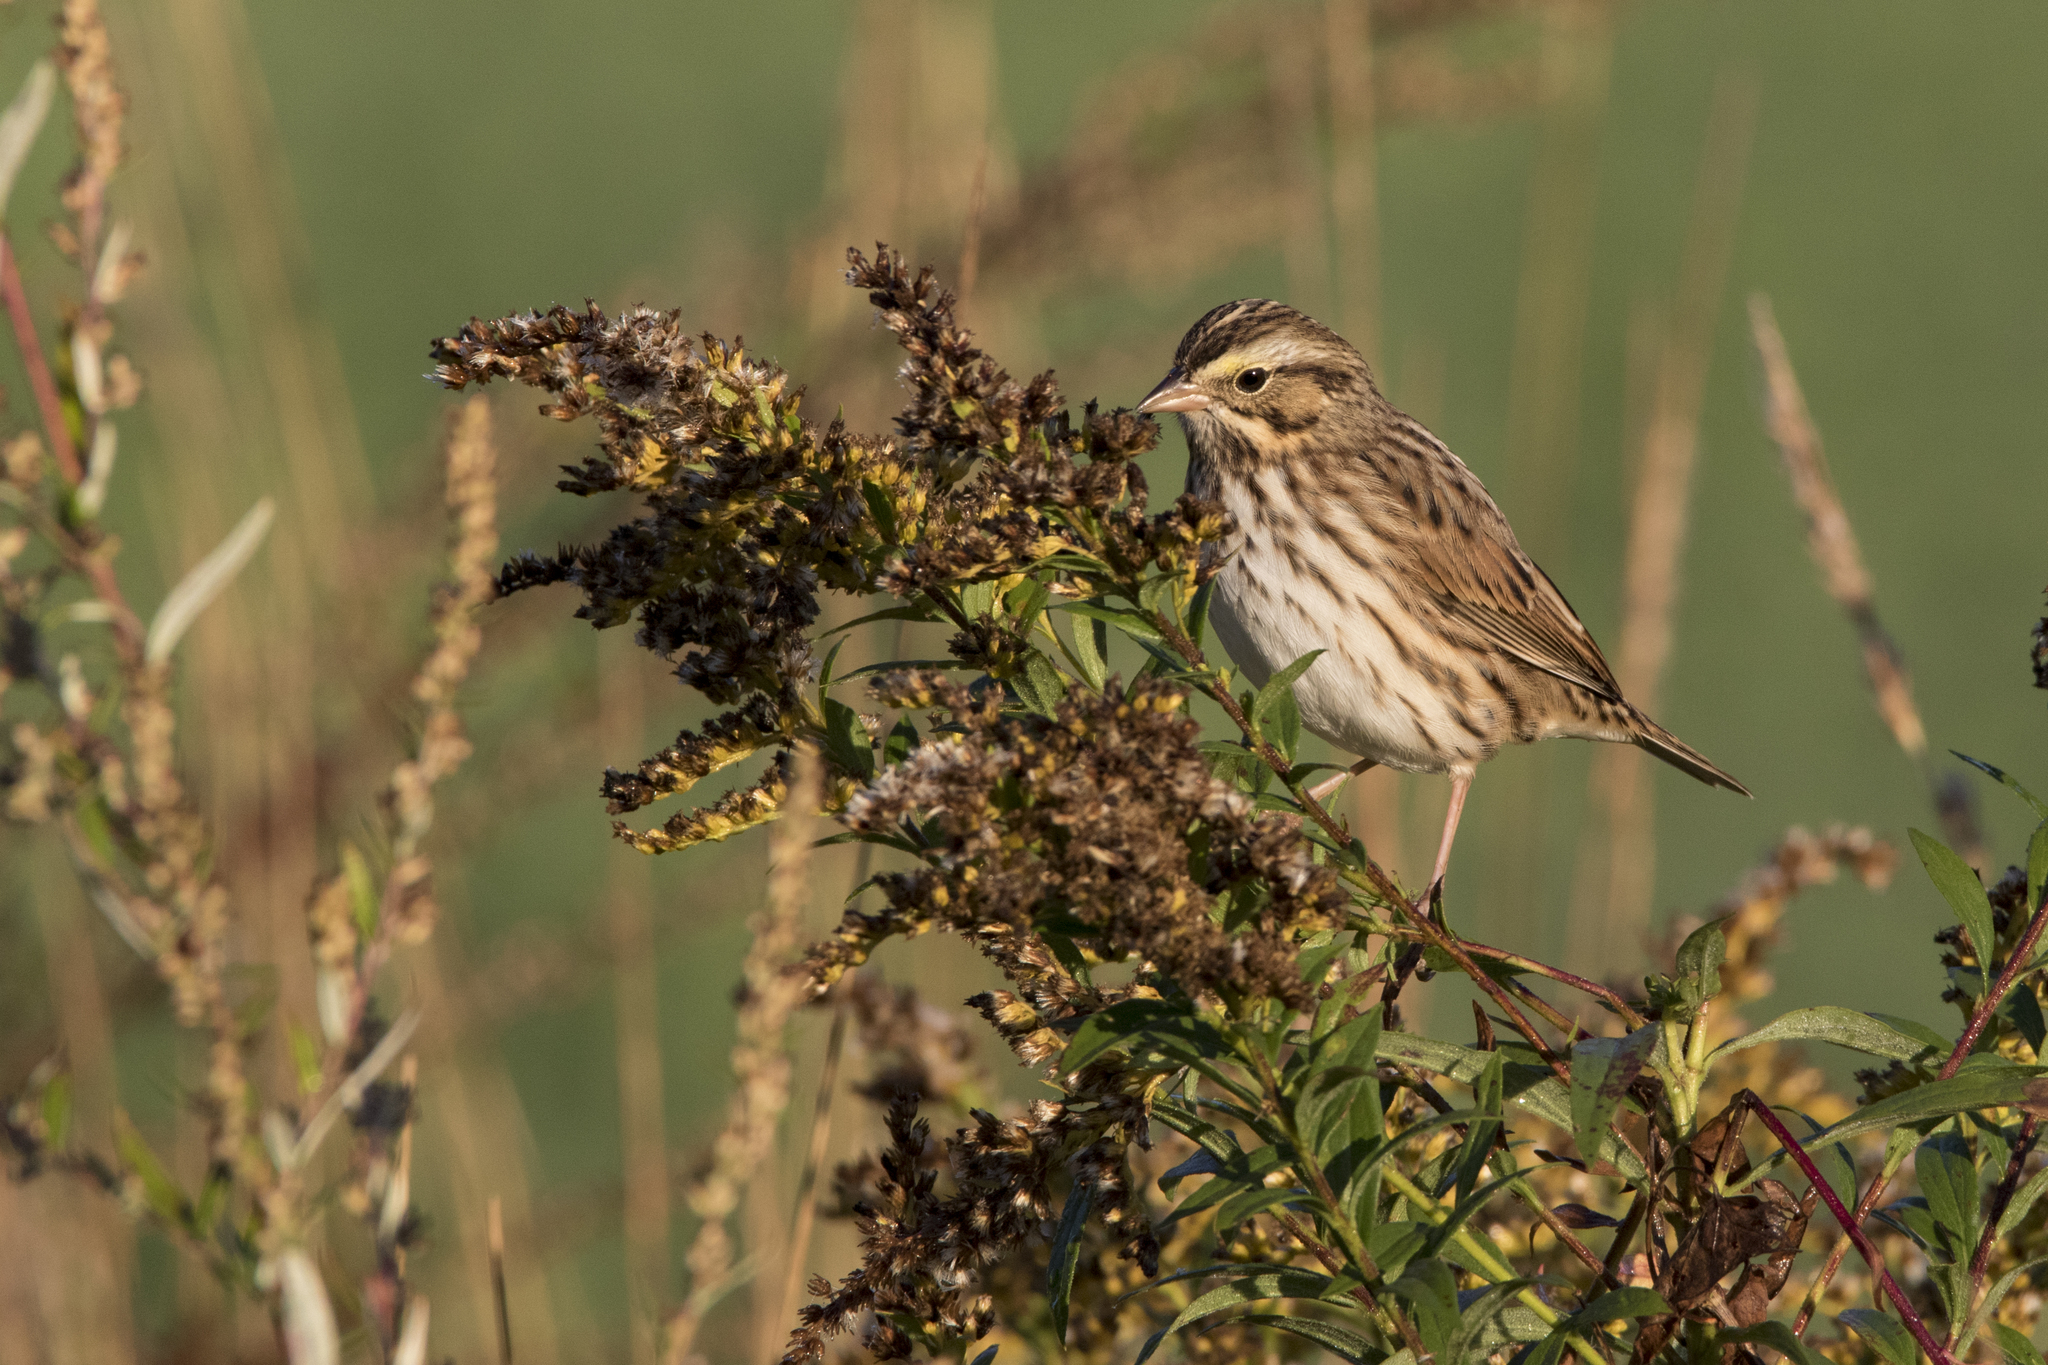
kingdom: Animalia
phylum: Chordata
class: Aves
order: Passeriformes
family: Passerellidae
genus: Passerculus
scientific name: Passerculus sandwichensis
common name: Savannah sparrow
